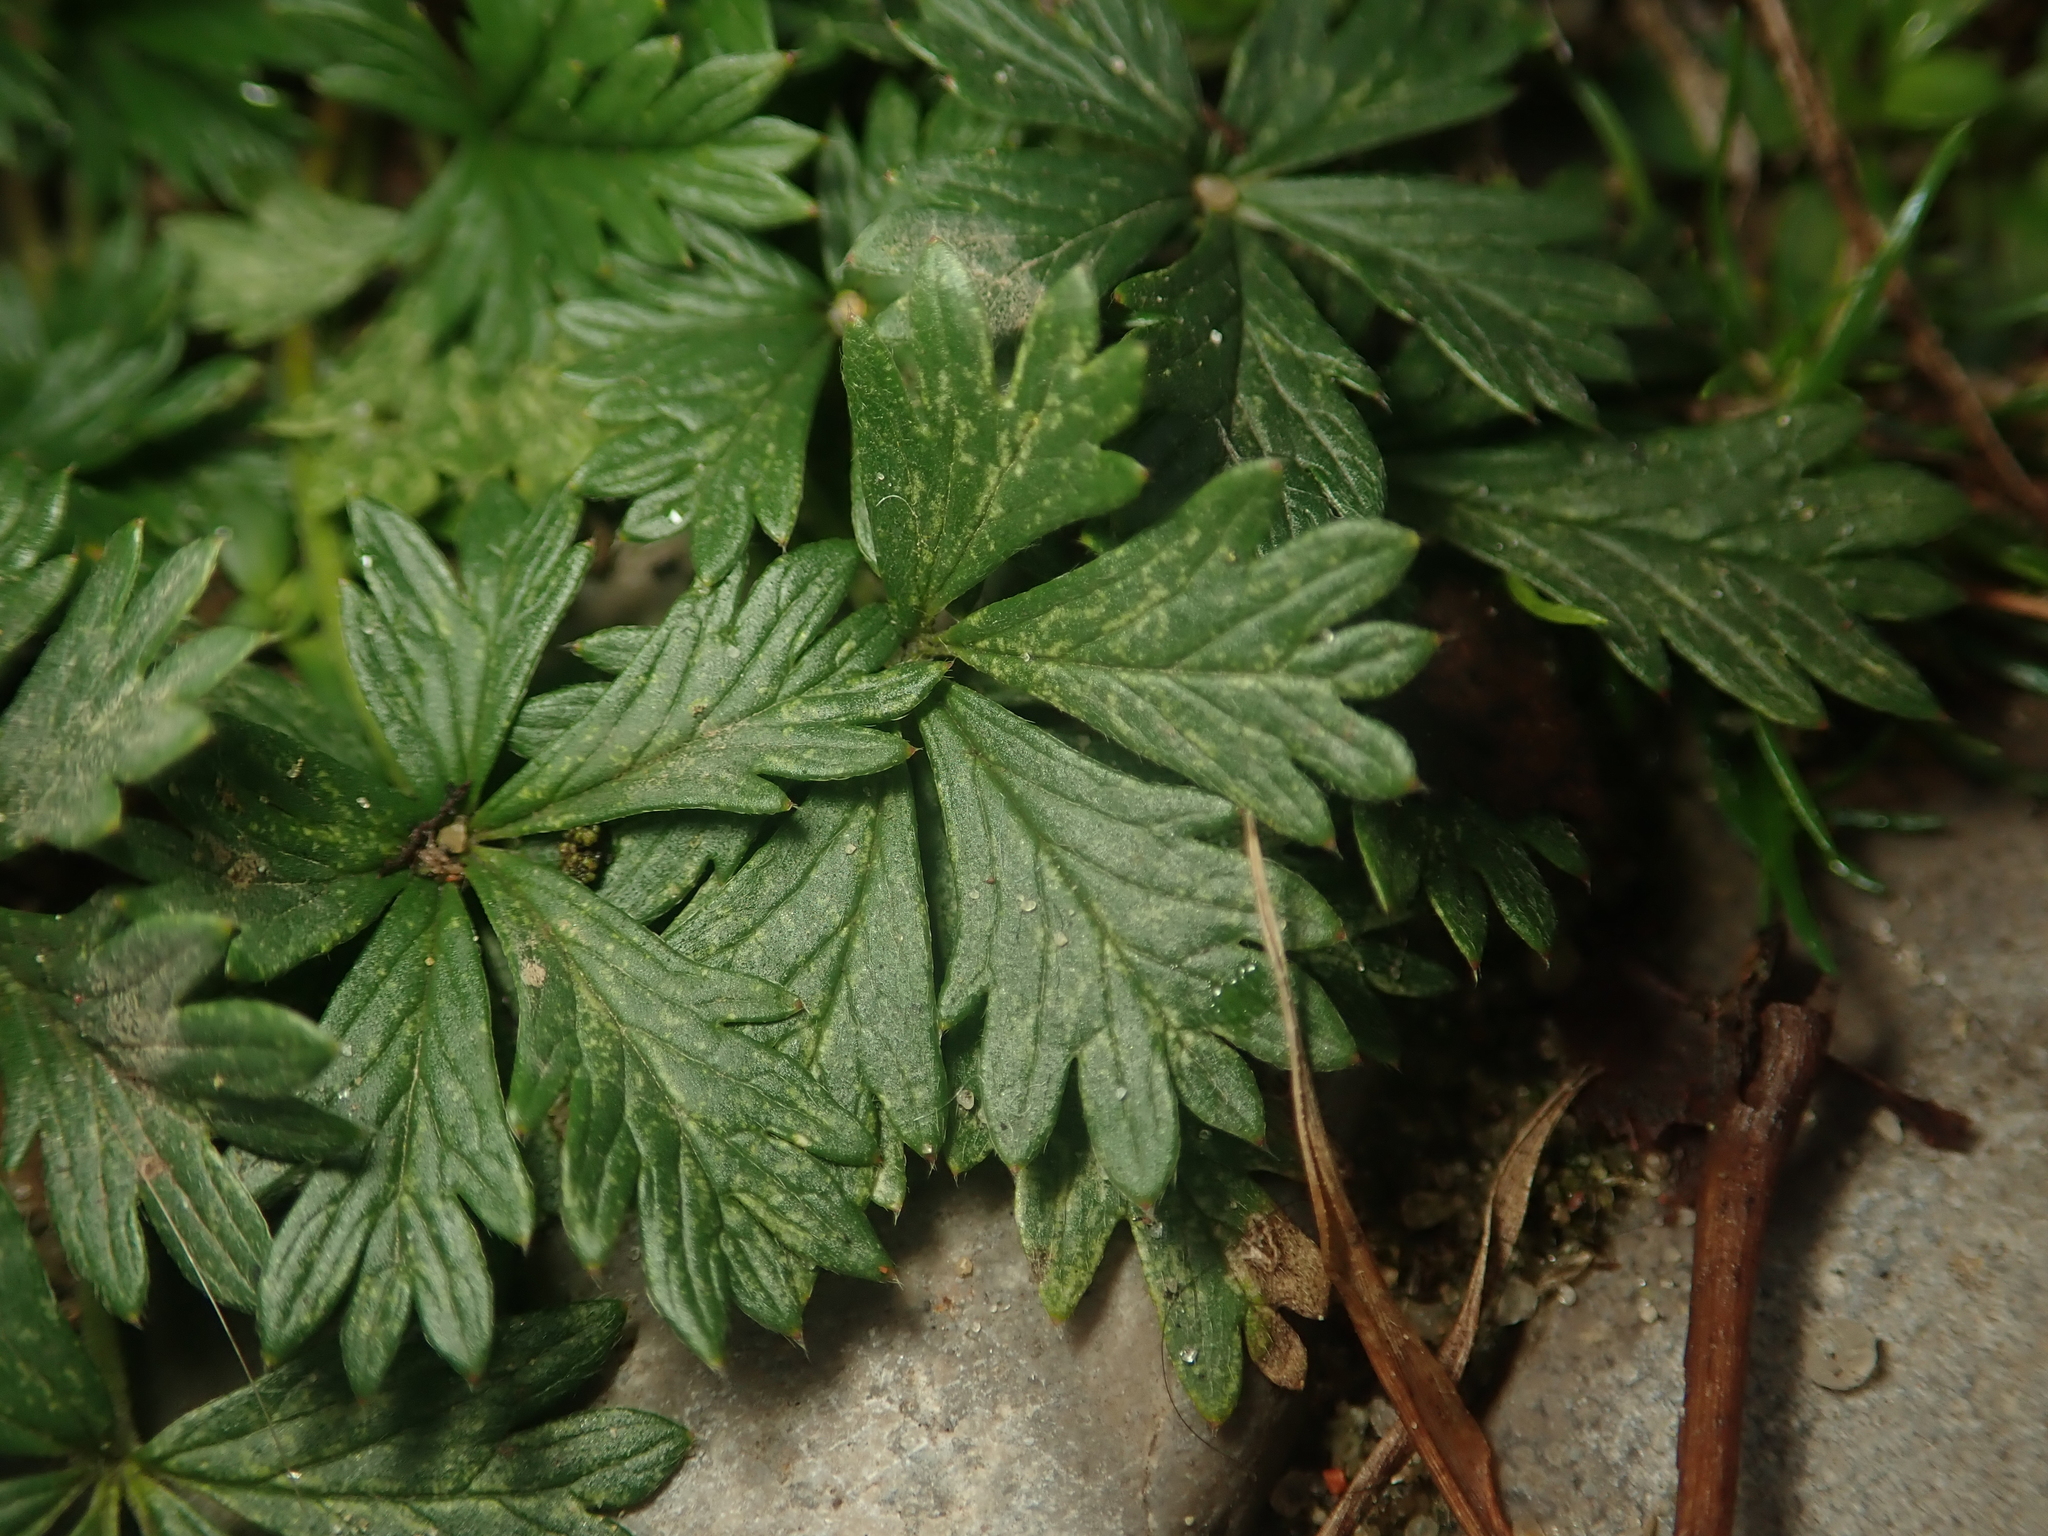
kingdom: Plantae
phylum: Tracheophyta
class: Magnoliopsida
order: Rosales
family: Rosaceae
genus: Potentilla
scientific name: Potentilla argentea
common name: Hoary cinquefoil
